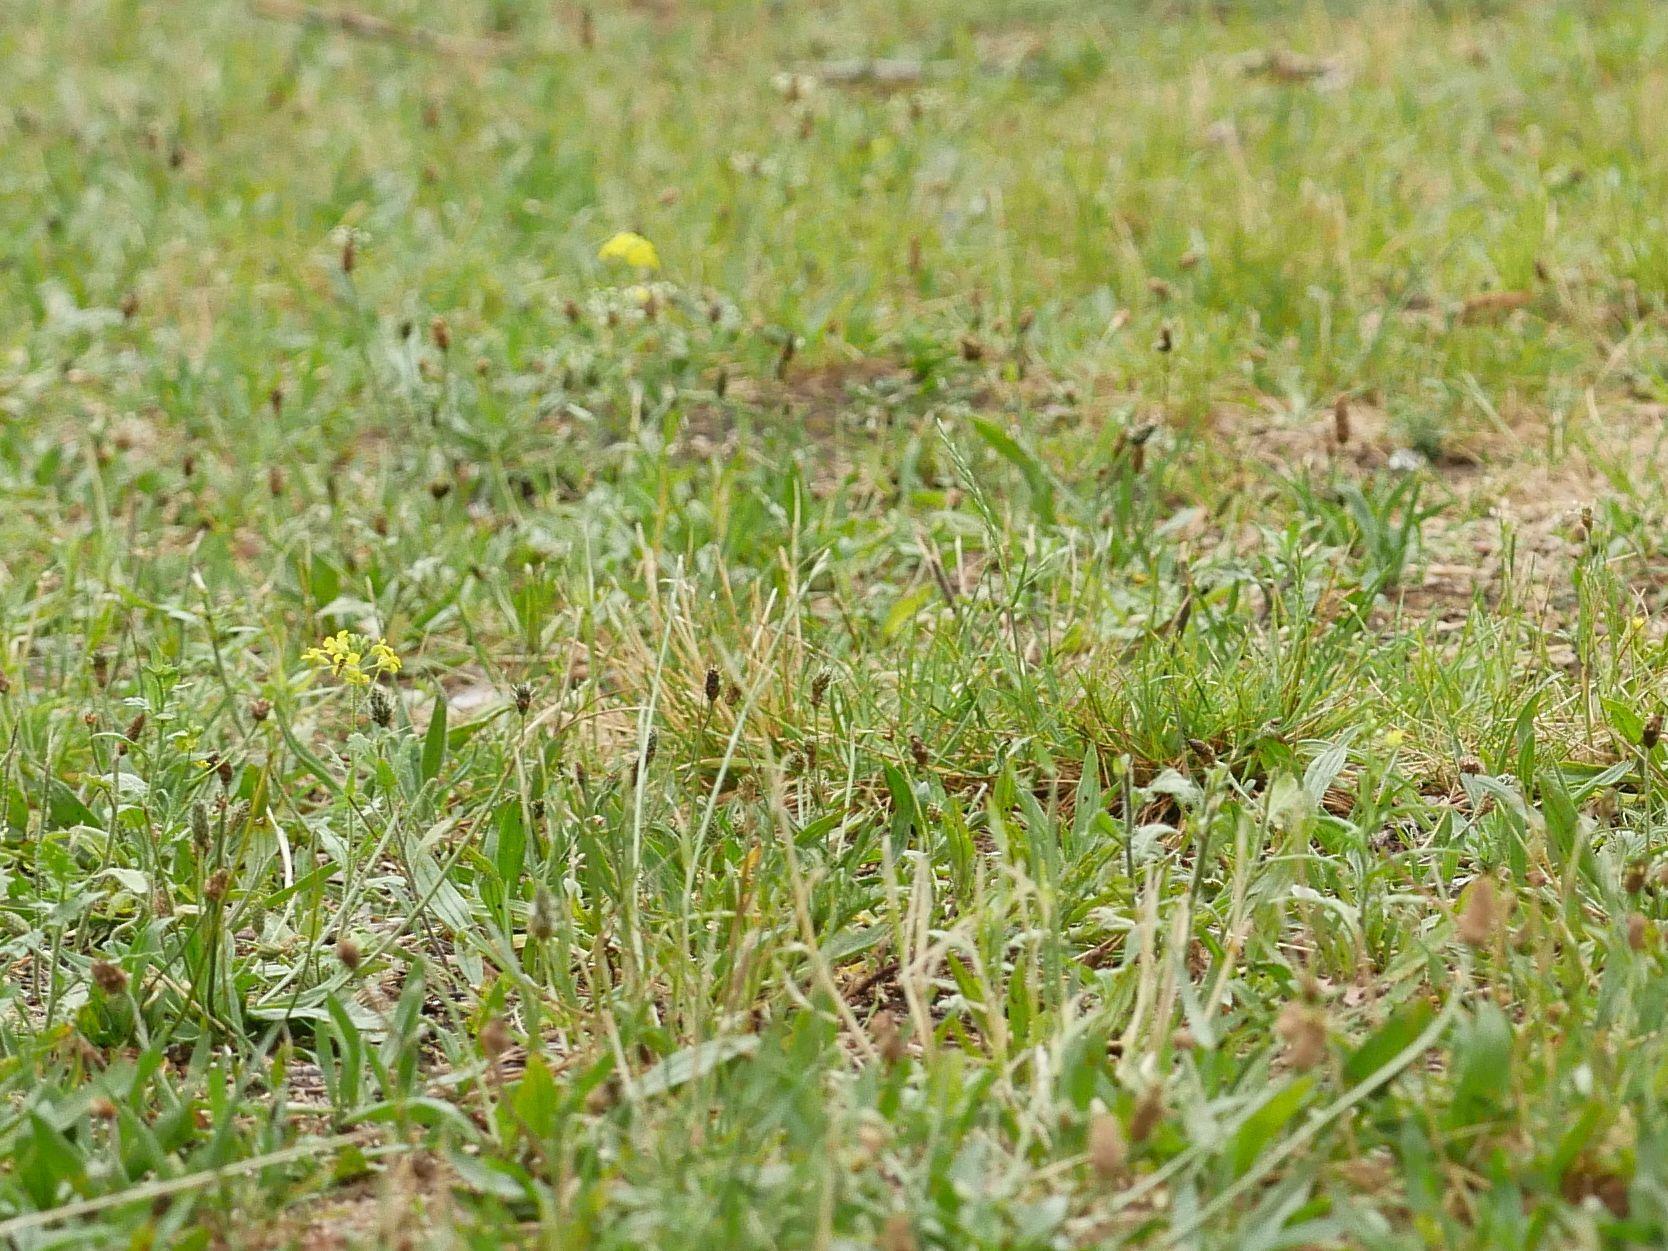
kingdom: Plantae
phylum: Tracheophyta
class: Magnoliopsida
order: Lamiales
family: Plantaginaceae
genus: Plantago
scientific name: Plantago lanceolata
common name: Ribwort plantain
